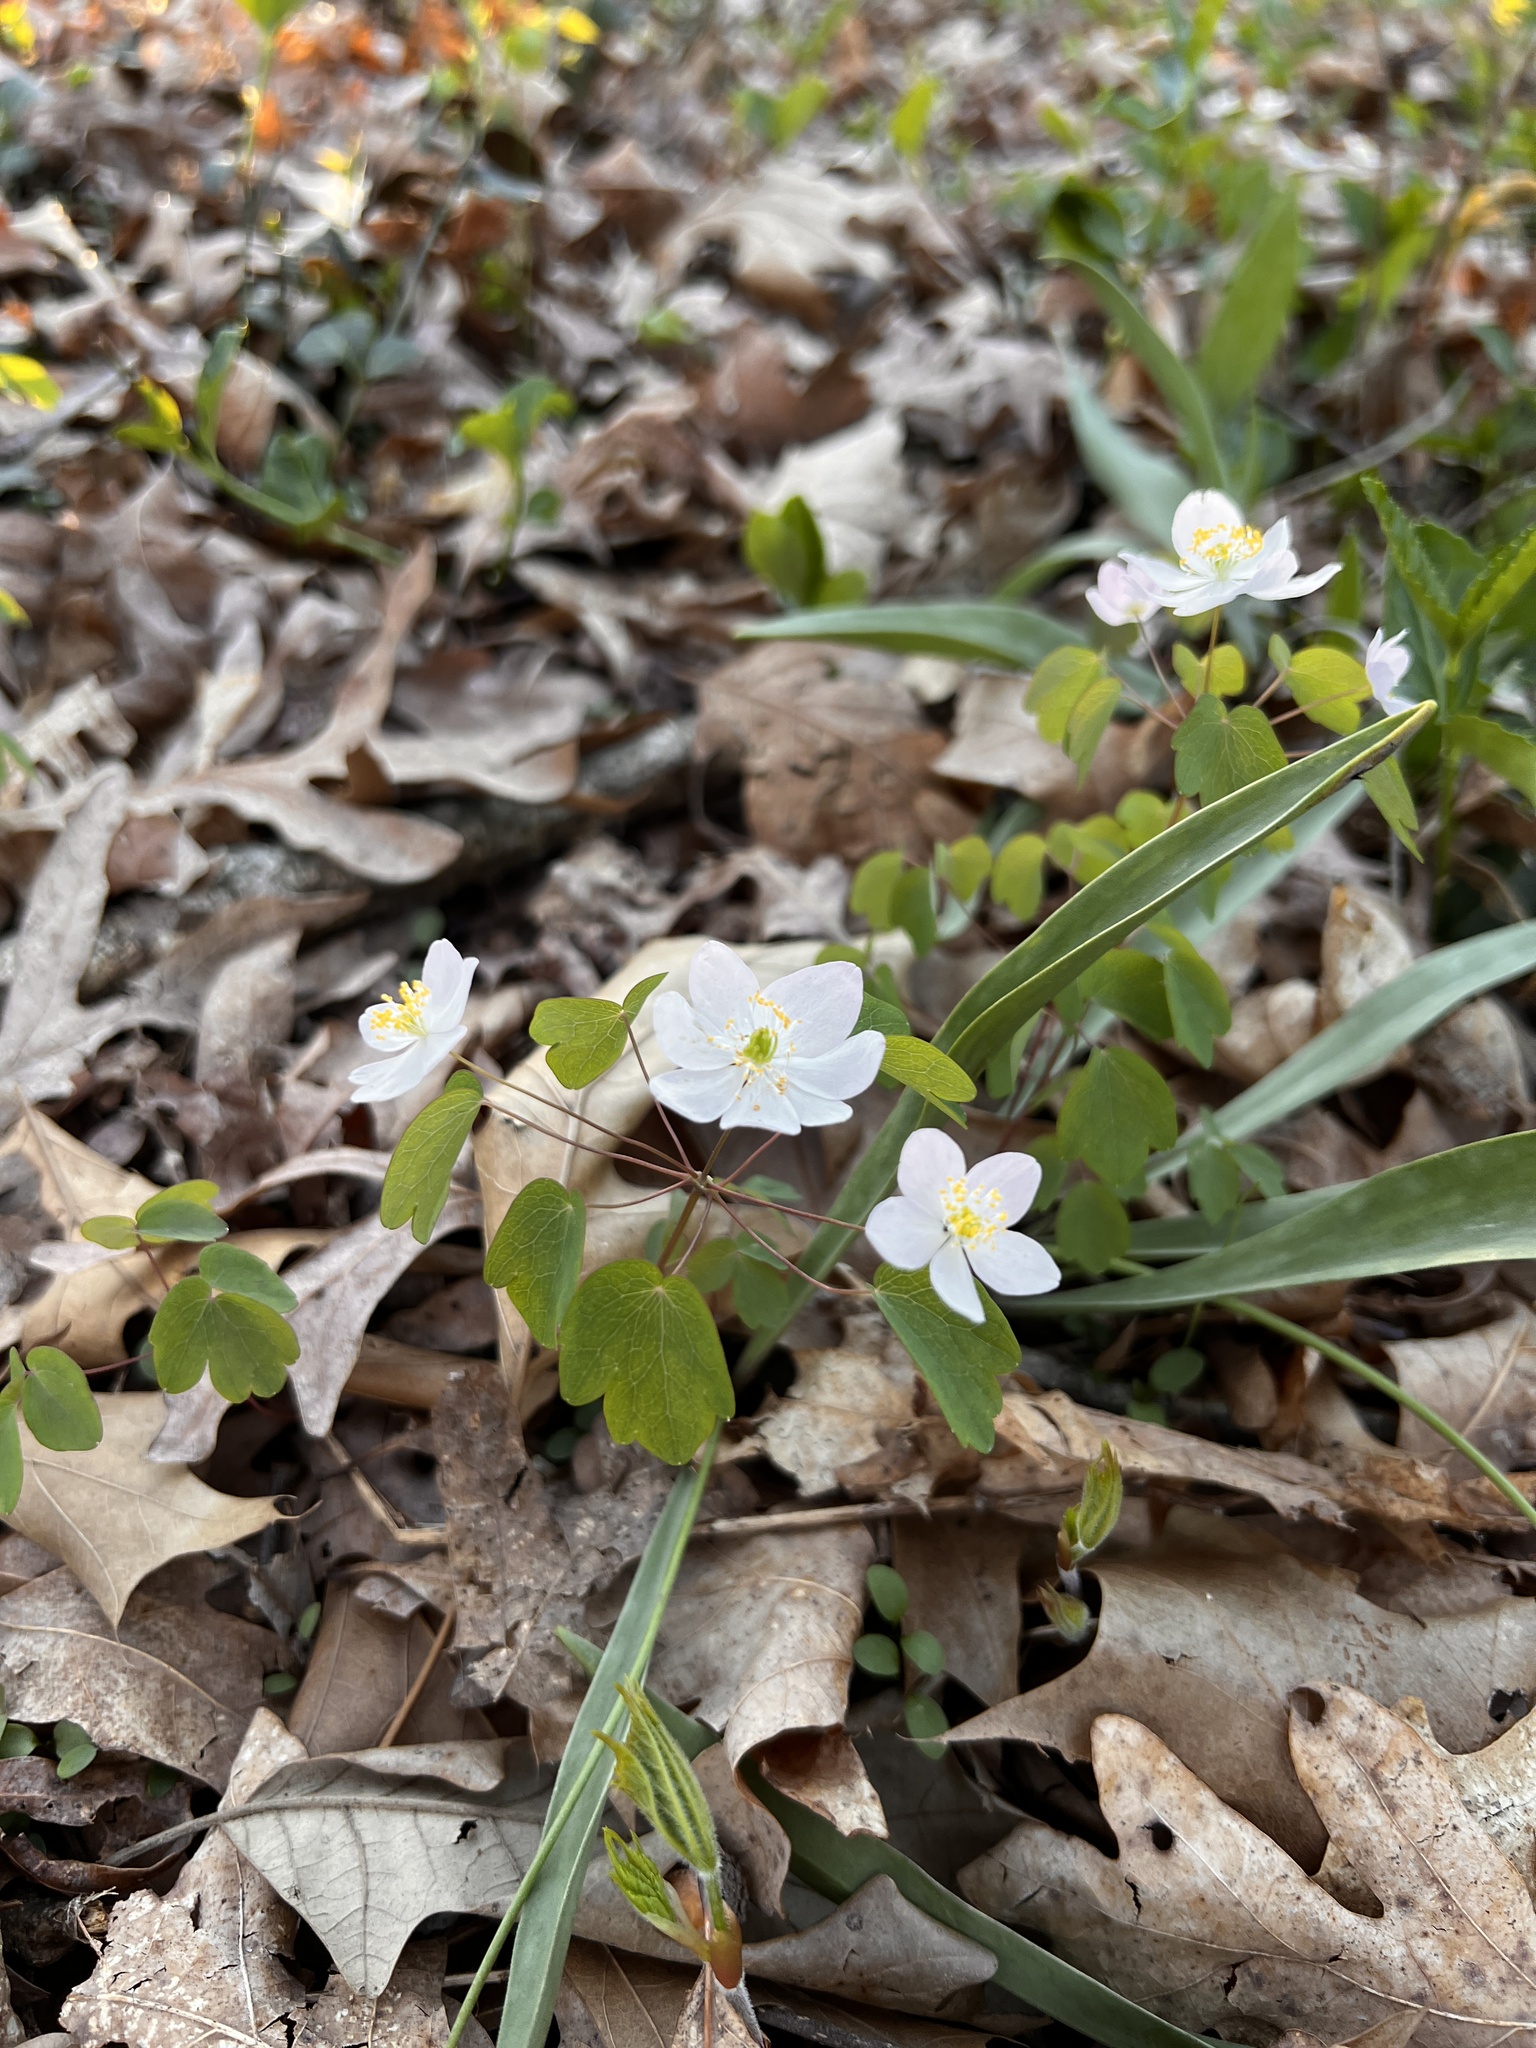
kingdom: Plantae
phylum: Tracheophyta
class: Magnoliopsida
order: Ranunculales
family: Ranunculaceae
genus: Thalictrum
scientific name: Thalictrum thalictroides
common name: Rue-anemone
